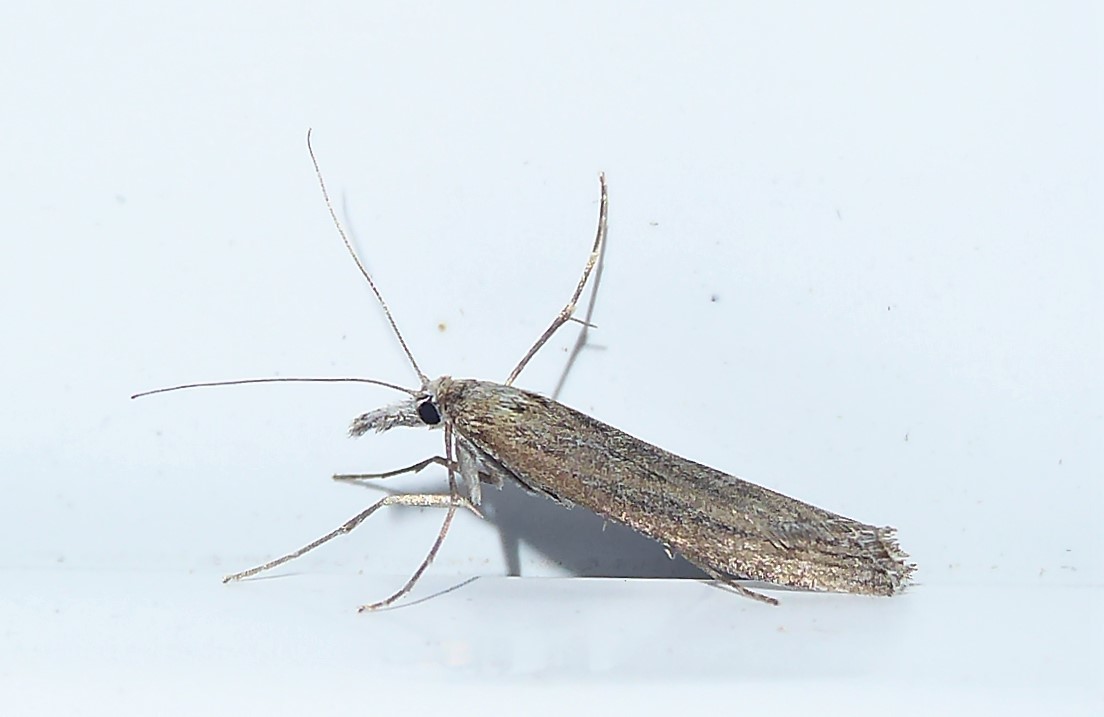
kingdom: Animalia
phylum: Arthropoda
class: Insecta
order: Lepidoptera
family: Crambidae
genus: Orocrambus
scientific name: Orocrambus cyclopicus
